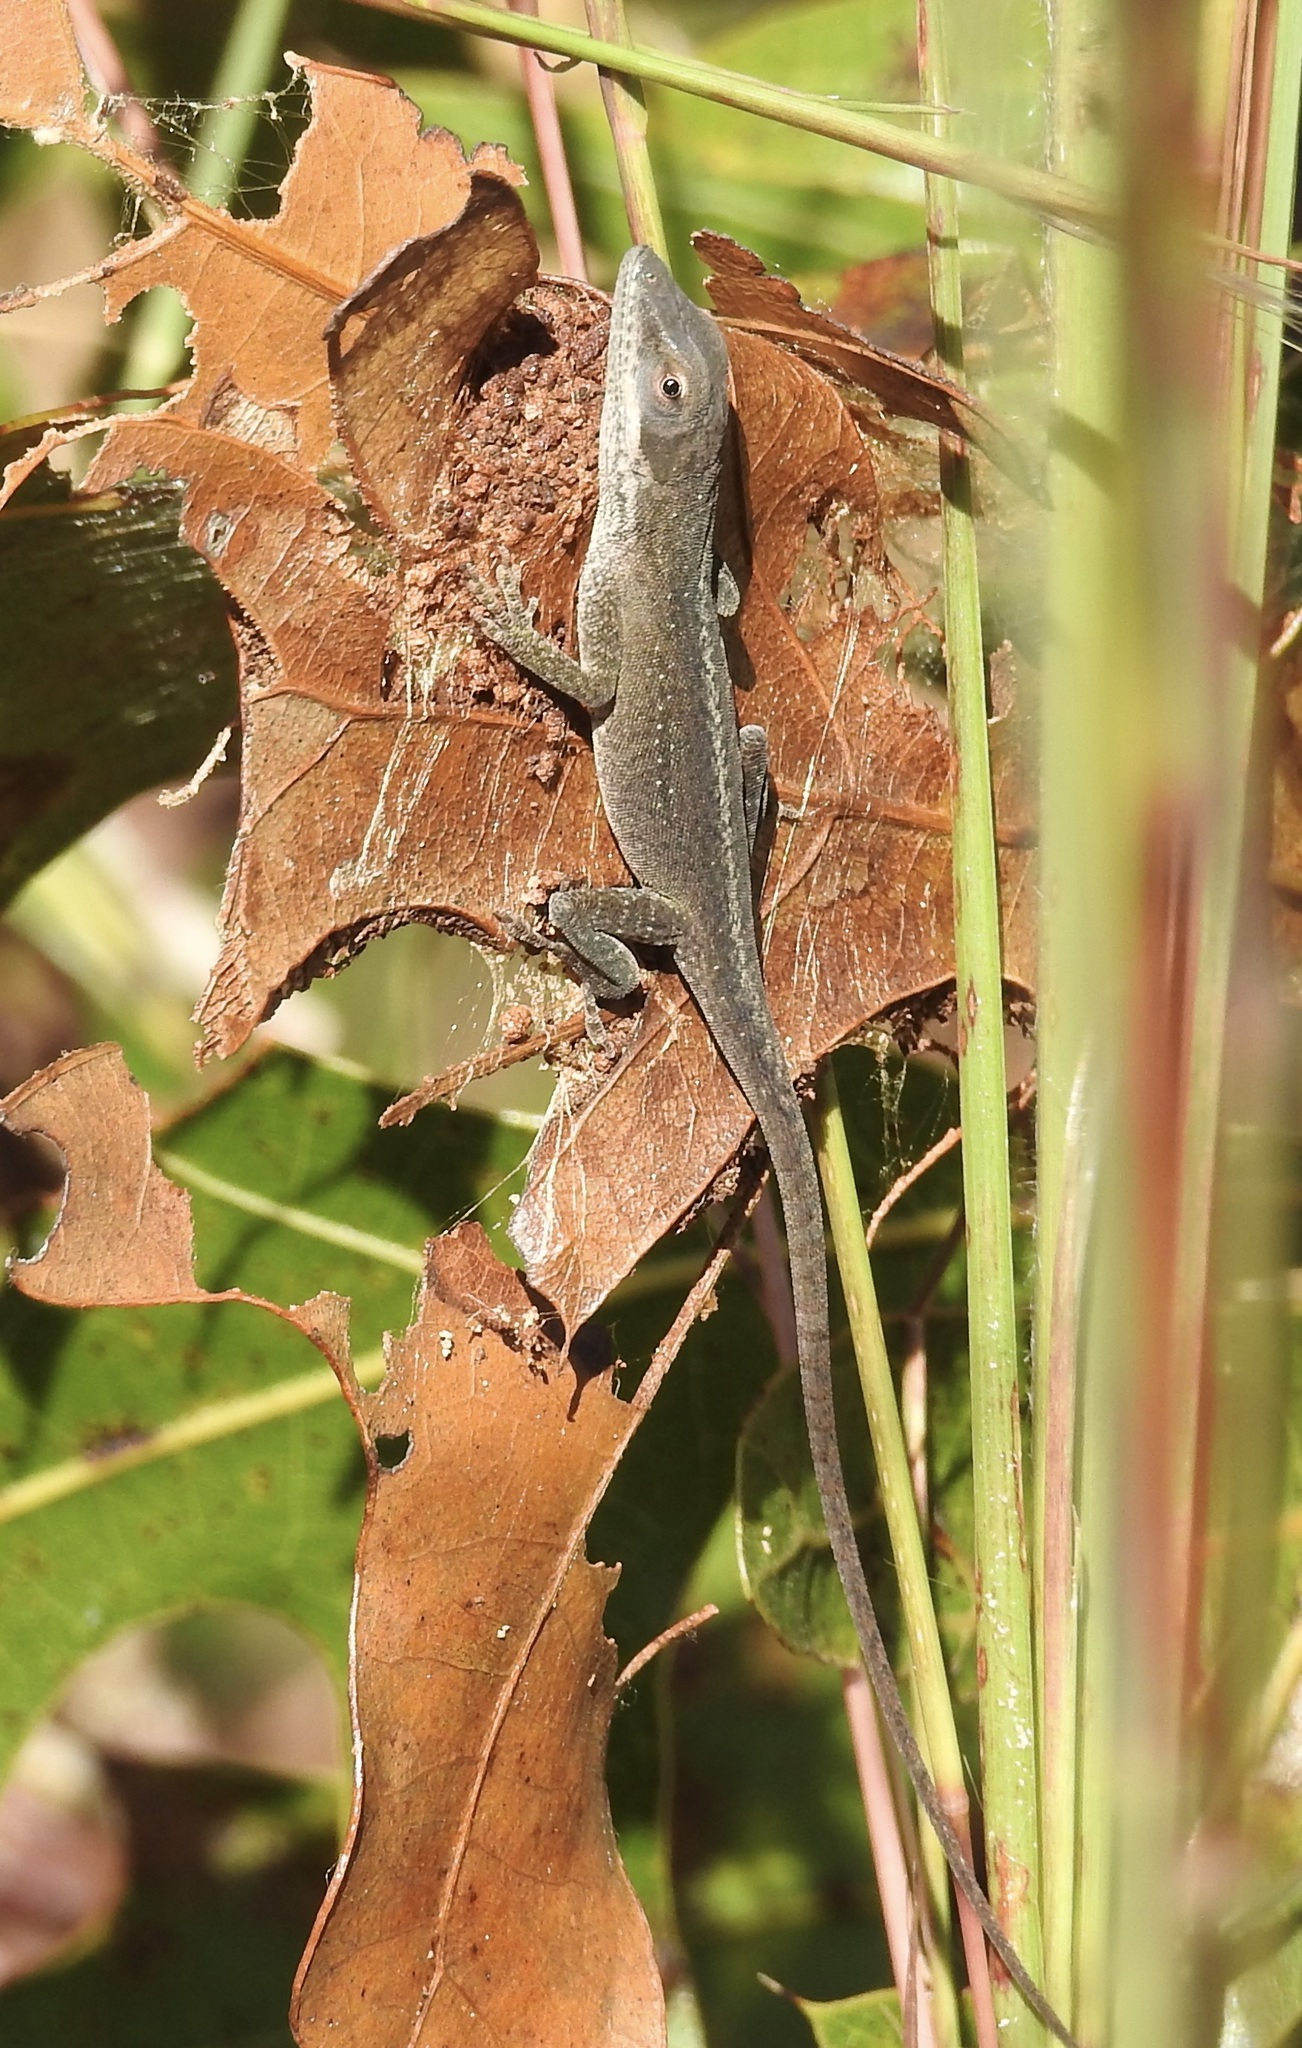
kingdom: Animalia
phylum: Chordata
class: Squamata
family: Dactyloidae
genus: Anolis
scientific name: Anolis carolinensis
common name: Green anole
